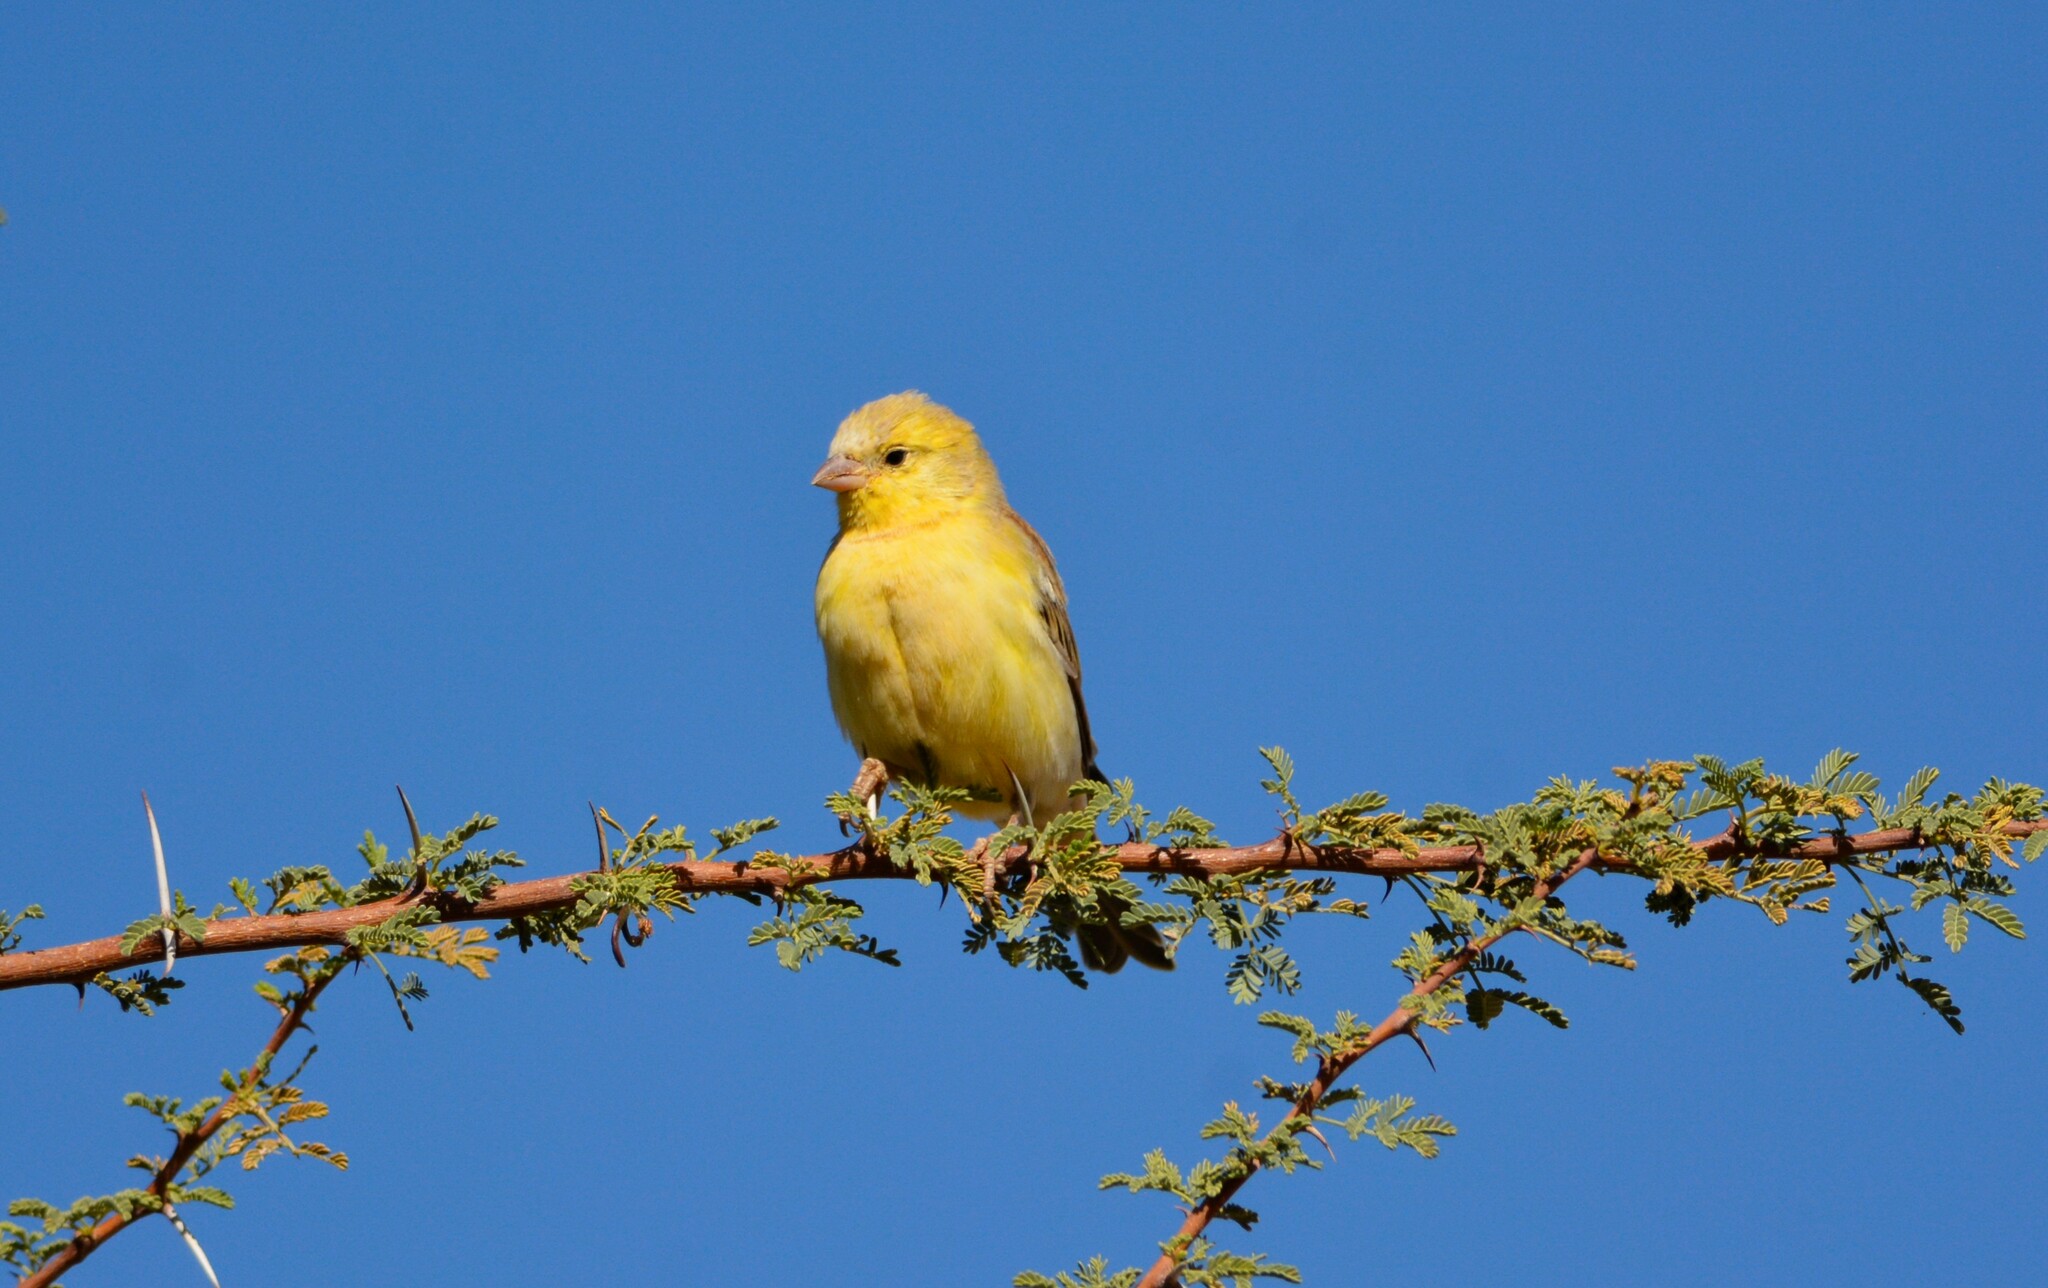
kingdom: Animalia
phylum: Chordata
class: Aves
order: Passeriformes
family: Passeridae
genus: Passer
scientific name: Passer luteus
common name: Sudan golden sparrow
